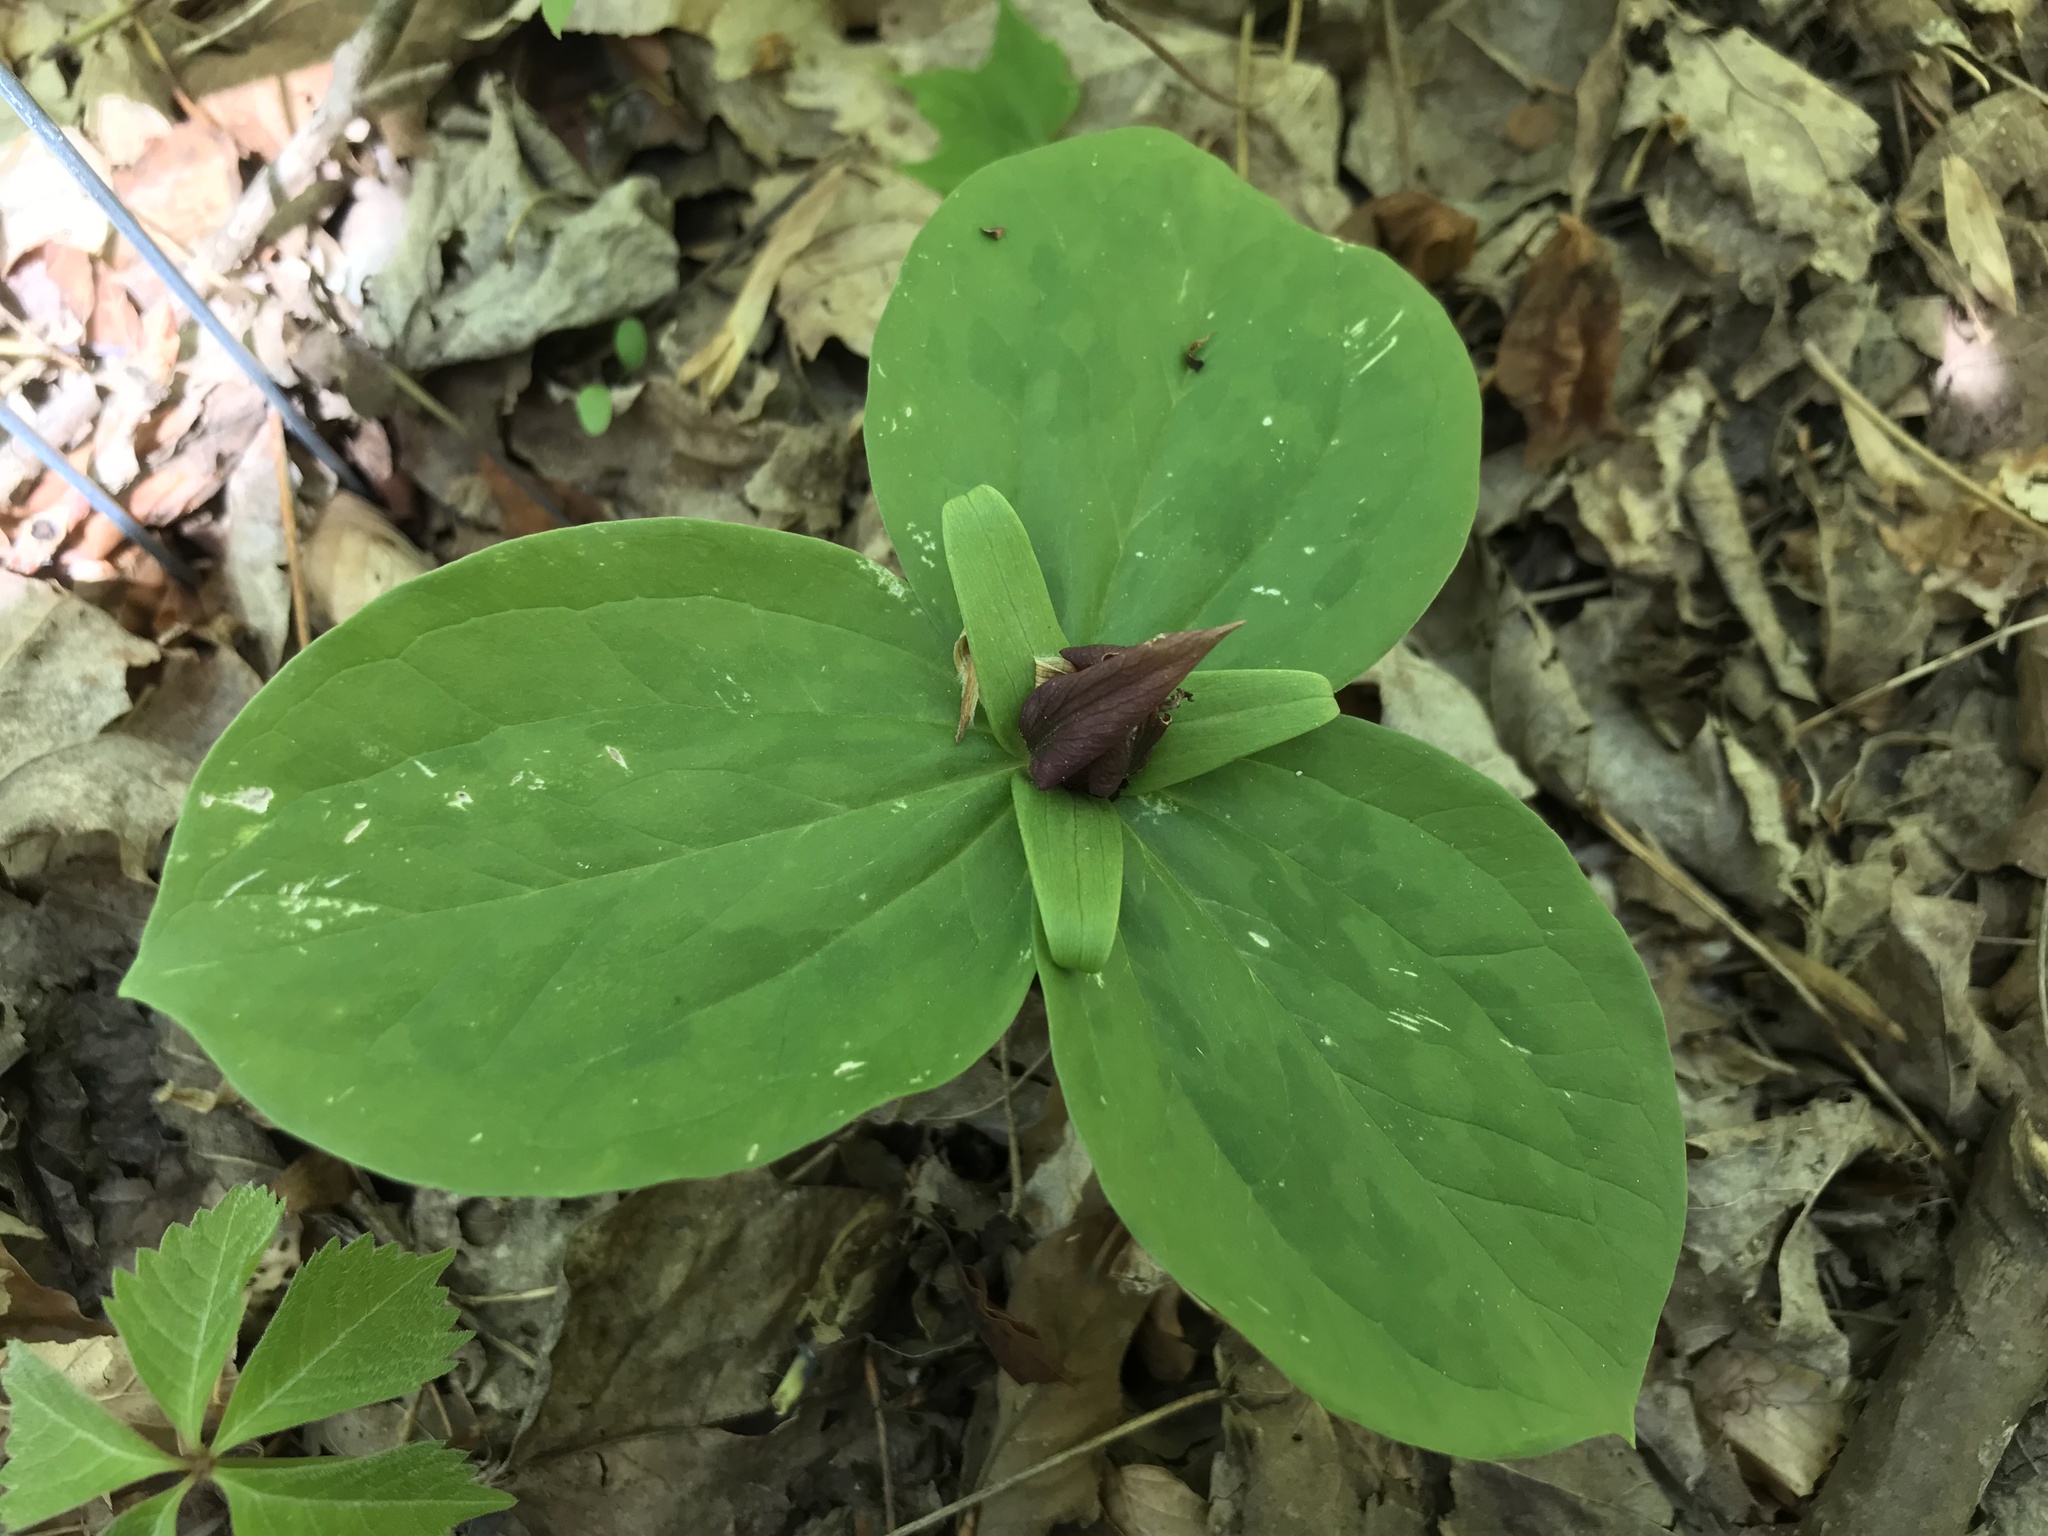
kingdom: Plantae
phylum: Tracheophyta
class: Liliopsida
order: Liliales
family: Melanthiaceae
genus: Trillium
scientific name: Trillium sessile
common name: Sessile trillium
